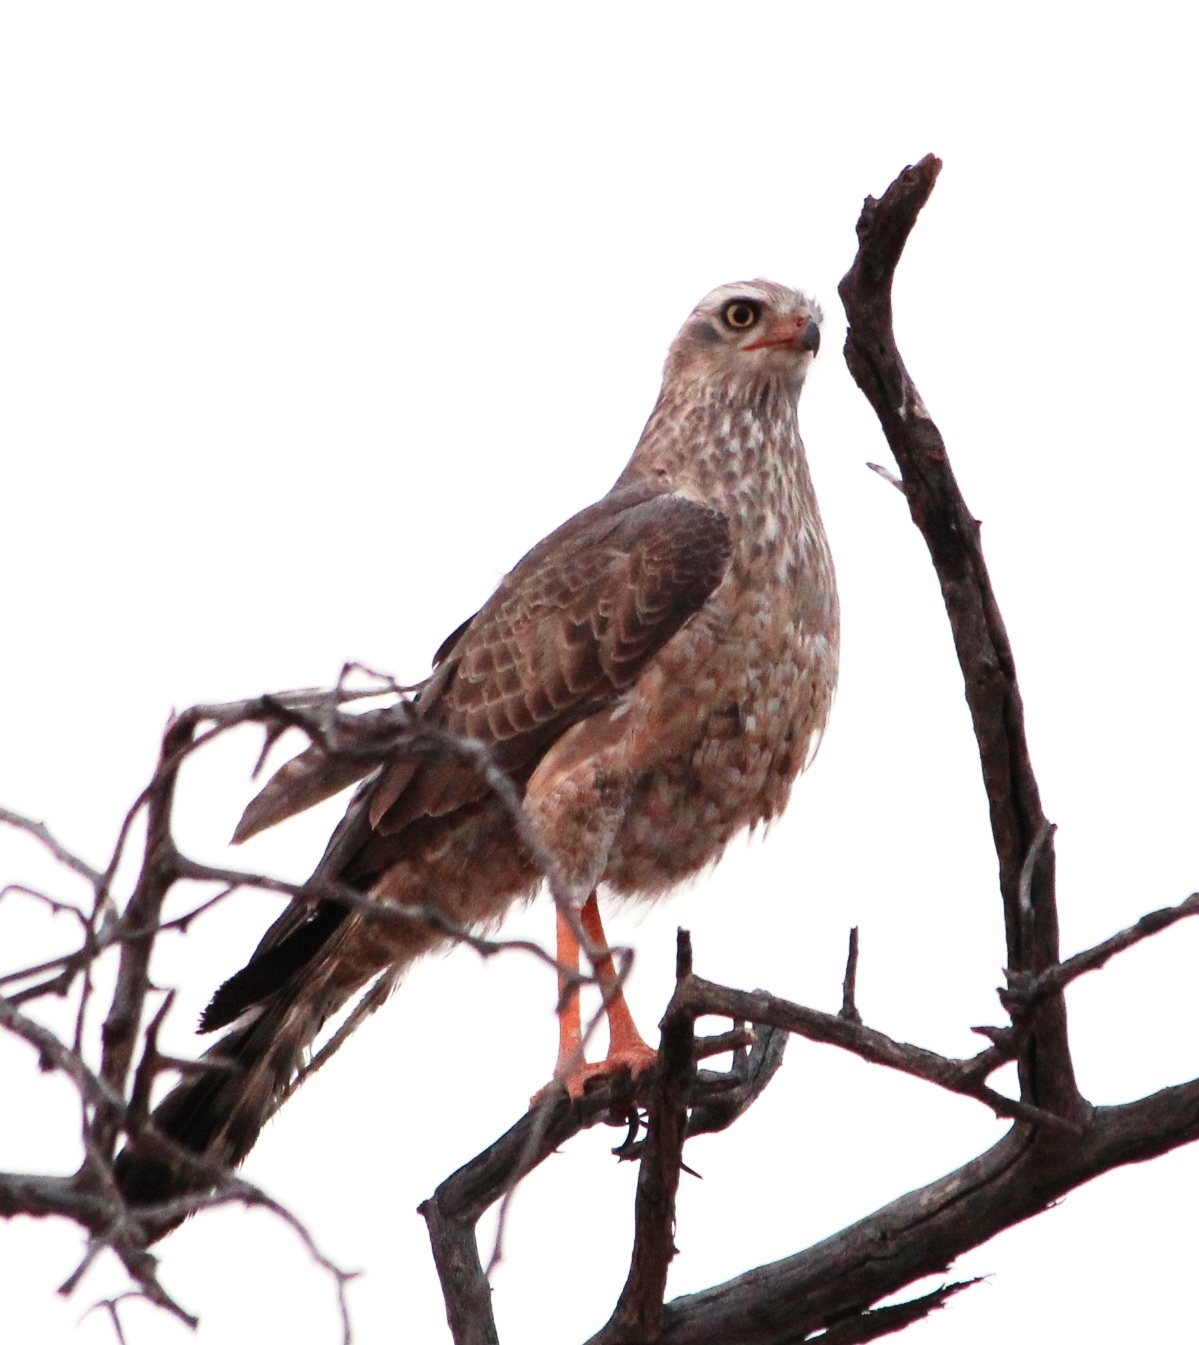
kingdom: Animalia
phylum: Chordata
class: Aves
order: Accipitriformes
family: Accipitridae
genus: Melierax
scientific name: Melierax canorus
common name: Pale chanting-goshawk
